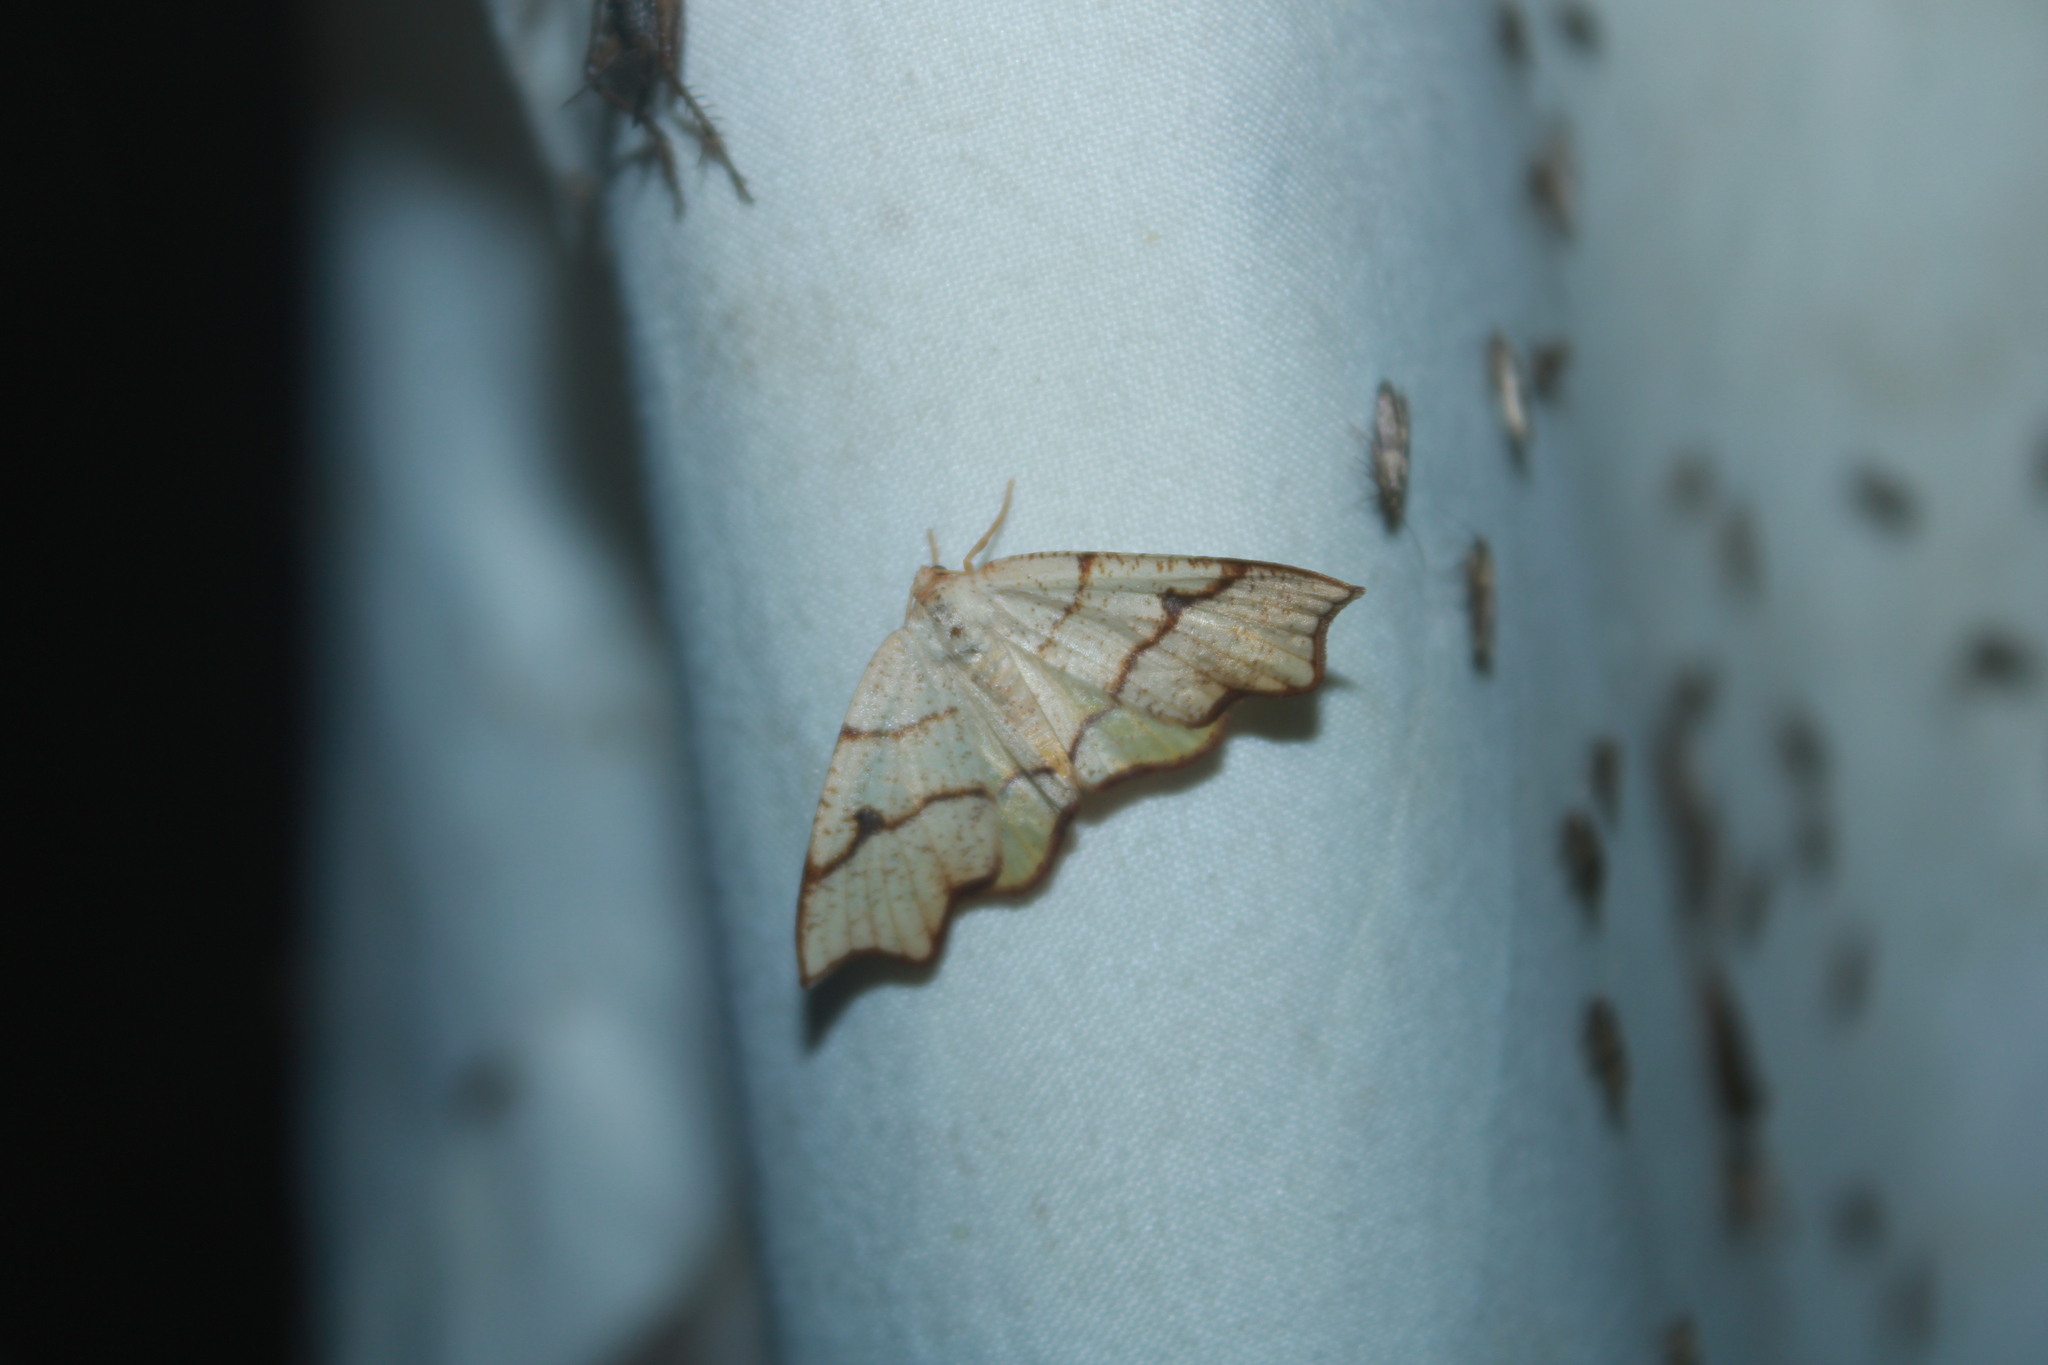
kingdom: Animalia
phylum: Arthropoda
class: Insecta
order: Lepidoptera
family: Geometridae
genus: Plagodis
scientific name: Plagodis alcoolaria
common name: Hollow-spotted plagodis
